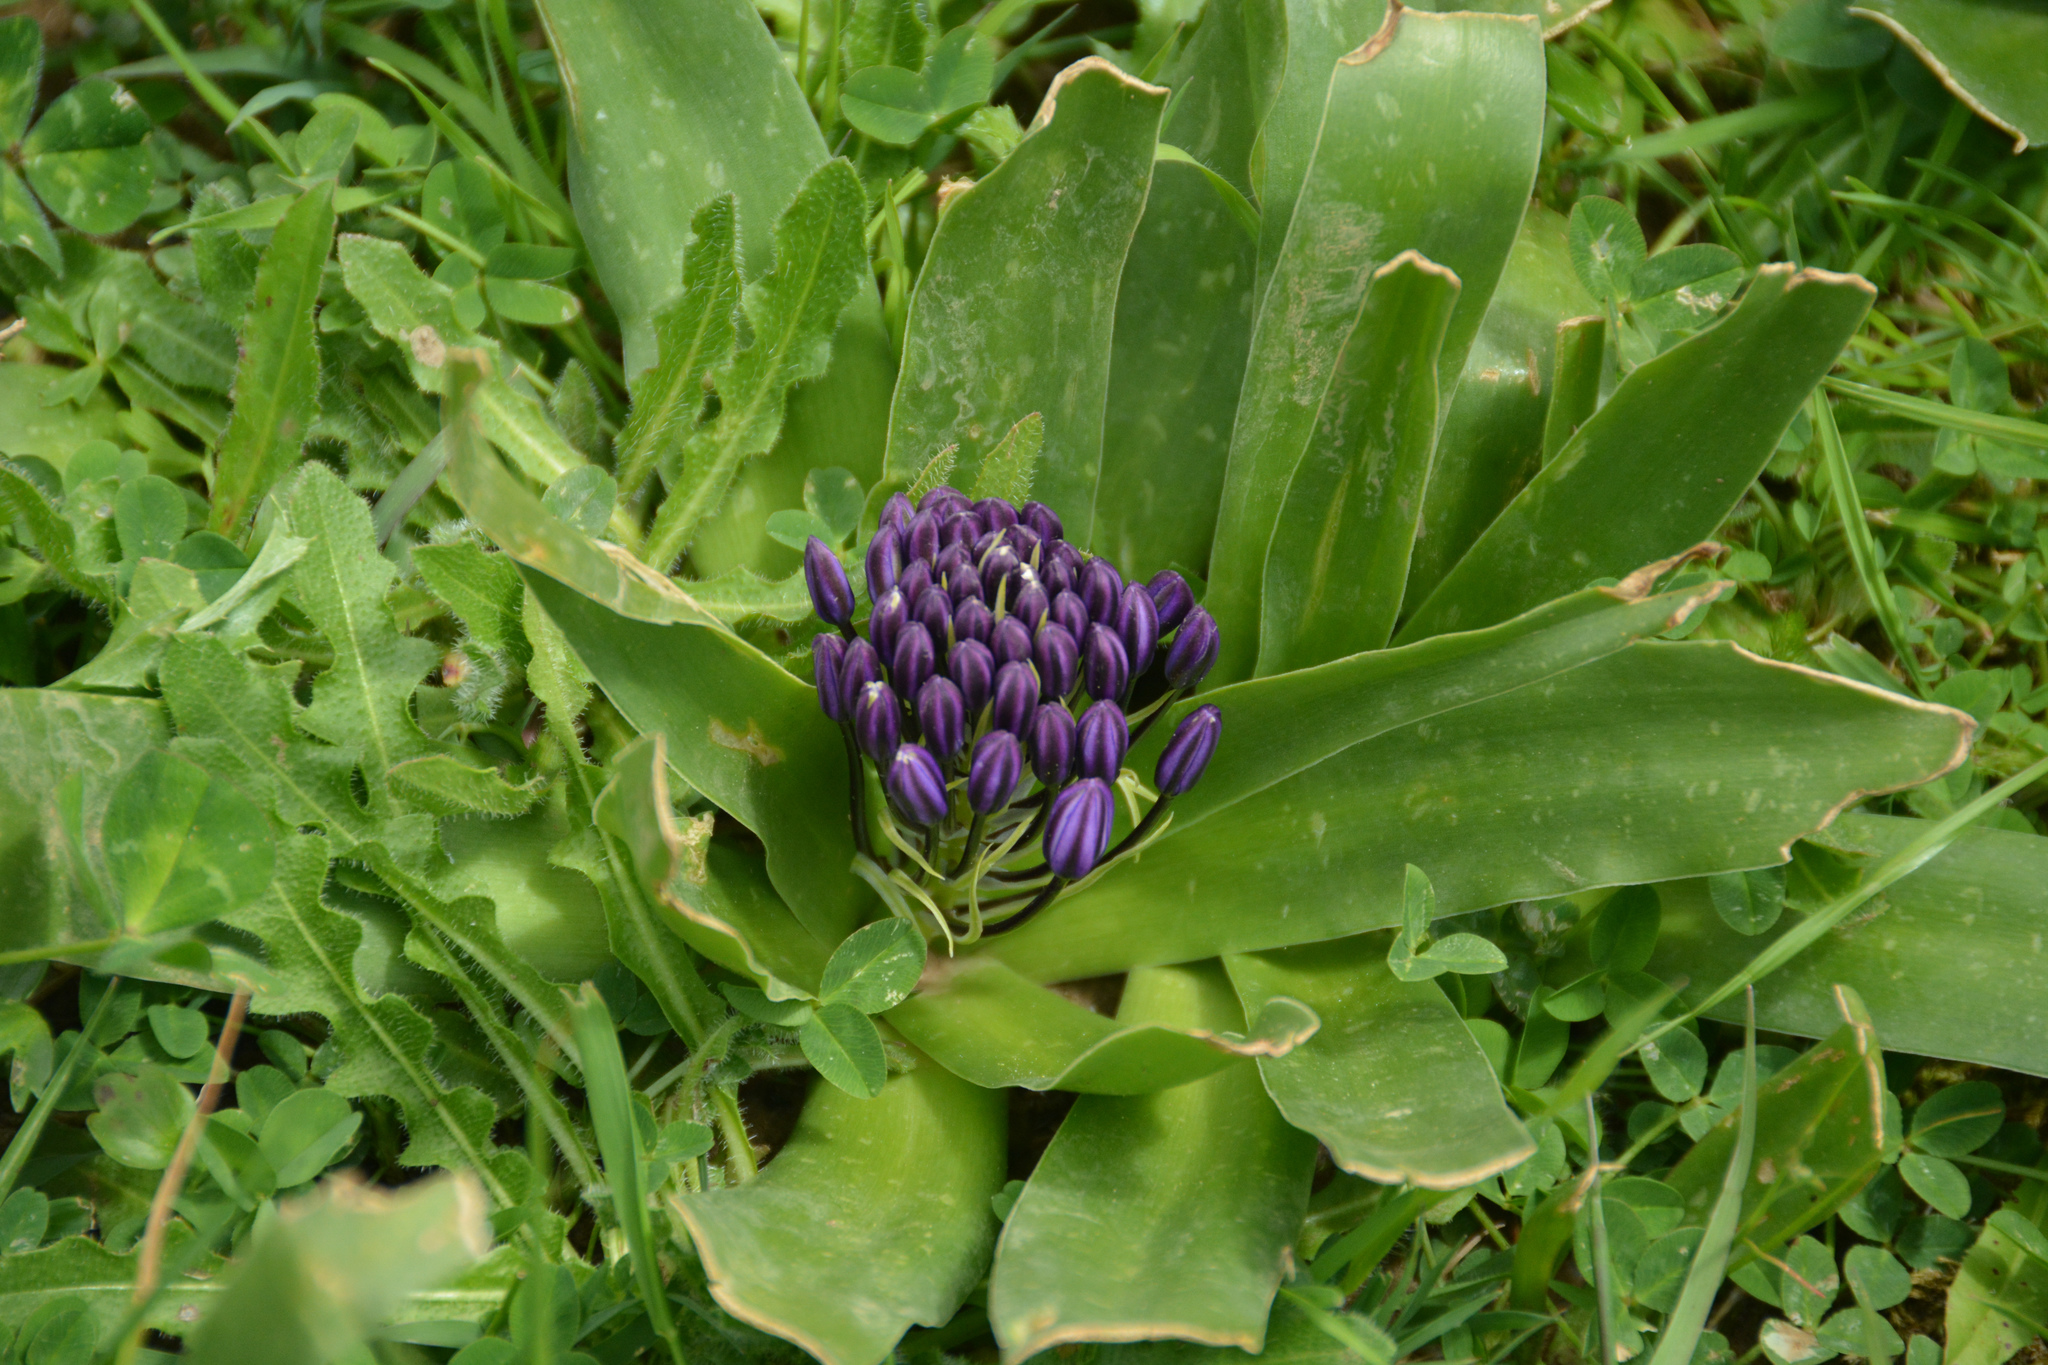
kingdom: Plantae
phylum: Tracheophyta
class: Liliopsida
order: Asparagales
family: Asparagaceae
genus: Scilla
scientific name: Scilla peruviana
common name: Portuguese squill
